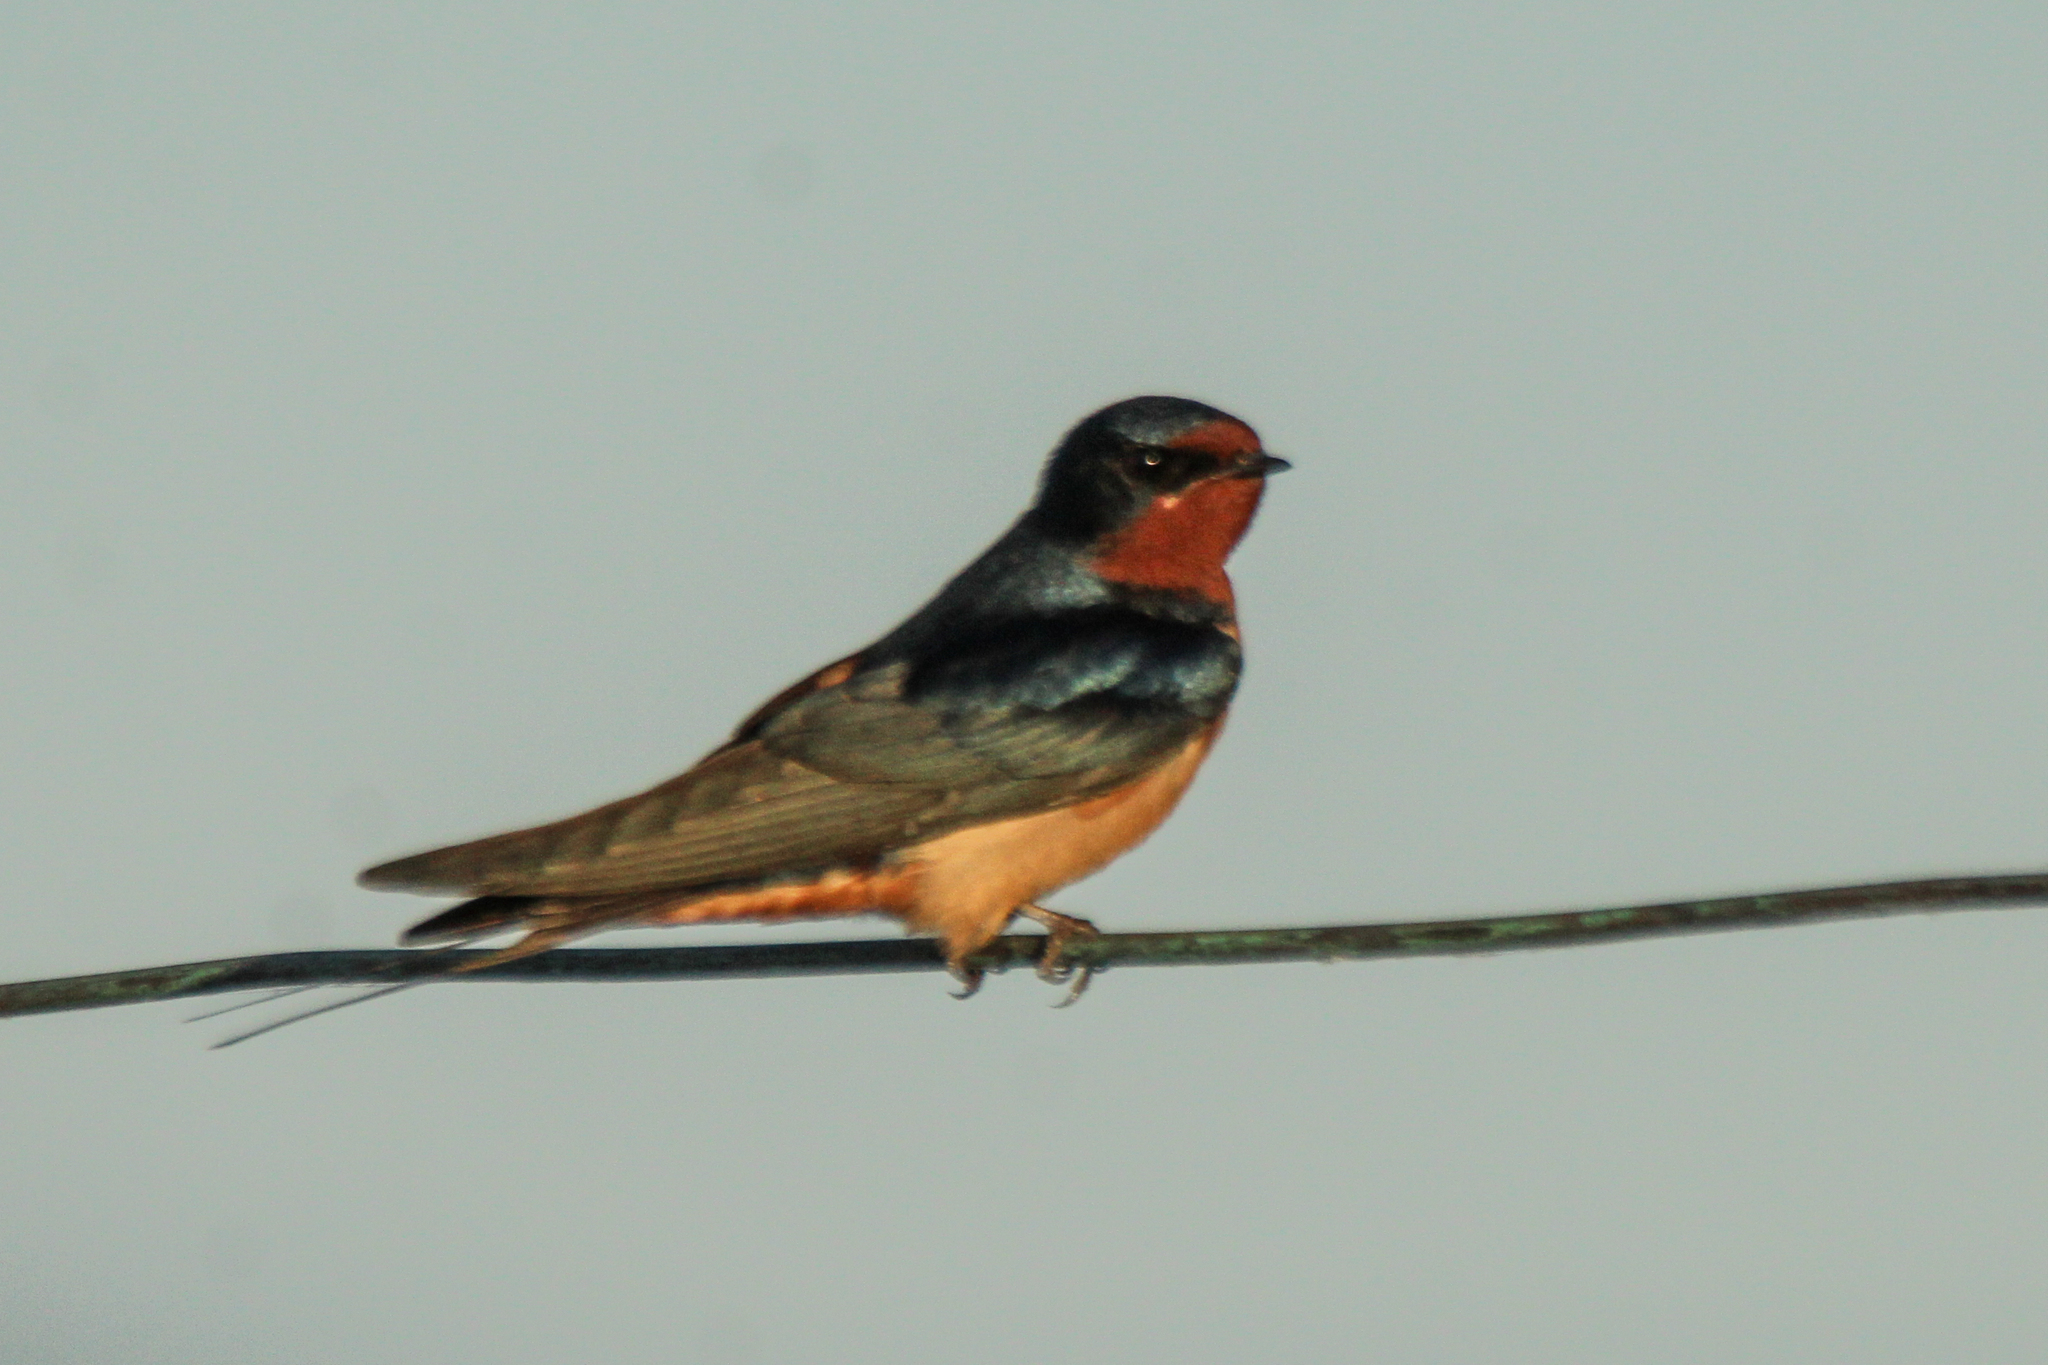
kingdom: Animalia
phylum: Chordata
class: Aves
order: Passeriformes
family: Hirundinidae
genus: Hirundo
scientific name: Hirundo rustica
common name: Barn swallow
